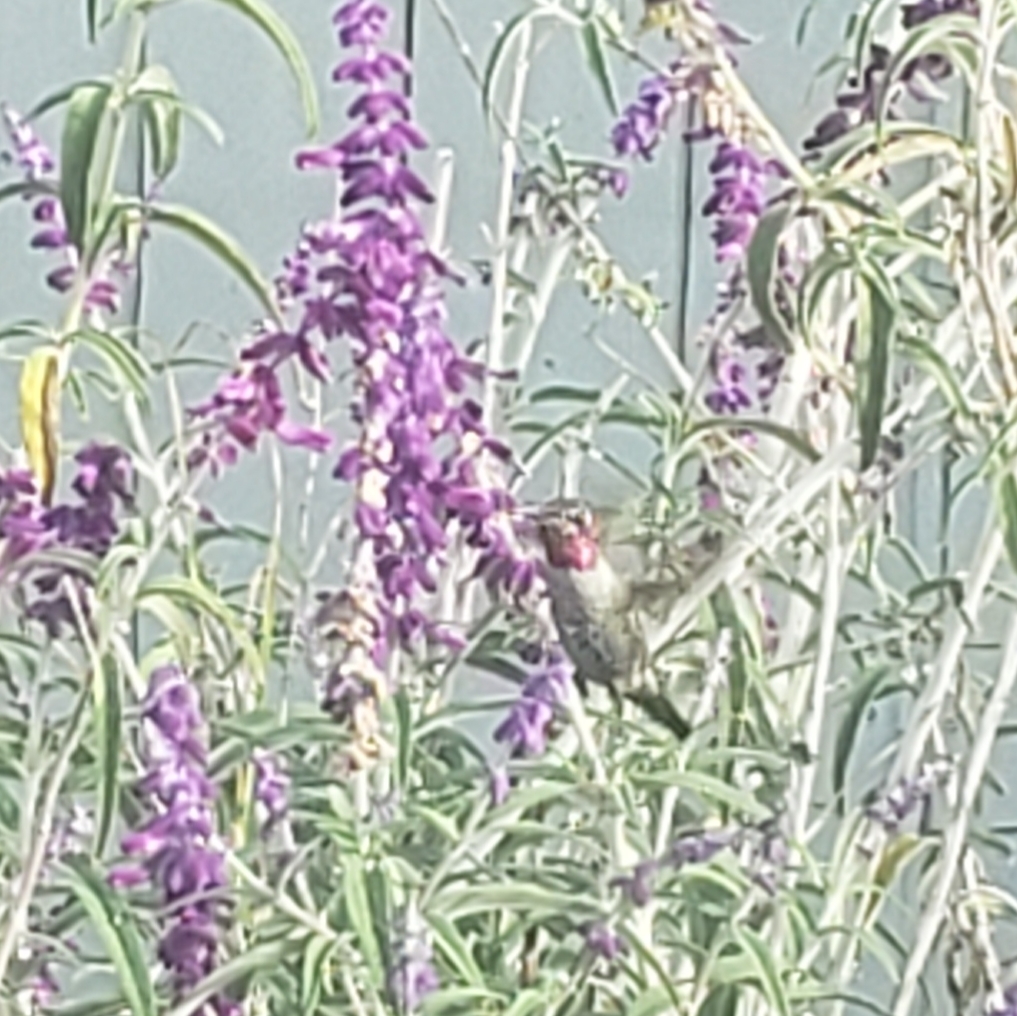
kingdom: Animalia
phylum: Chordata
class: Aves
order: Apodiformes
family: Trochilidae
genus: Calypte
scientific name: Calypte anna
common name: Anna's hummingbird
